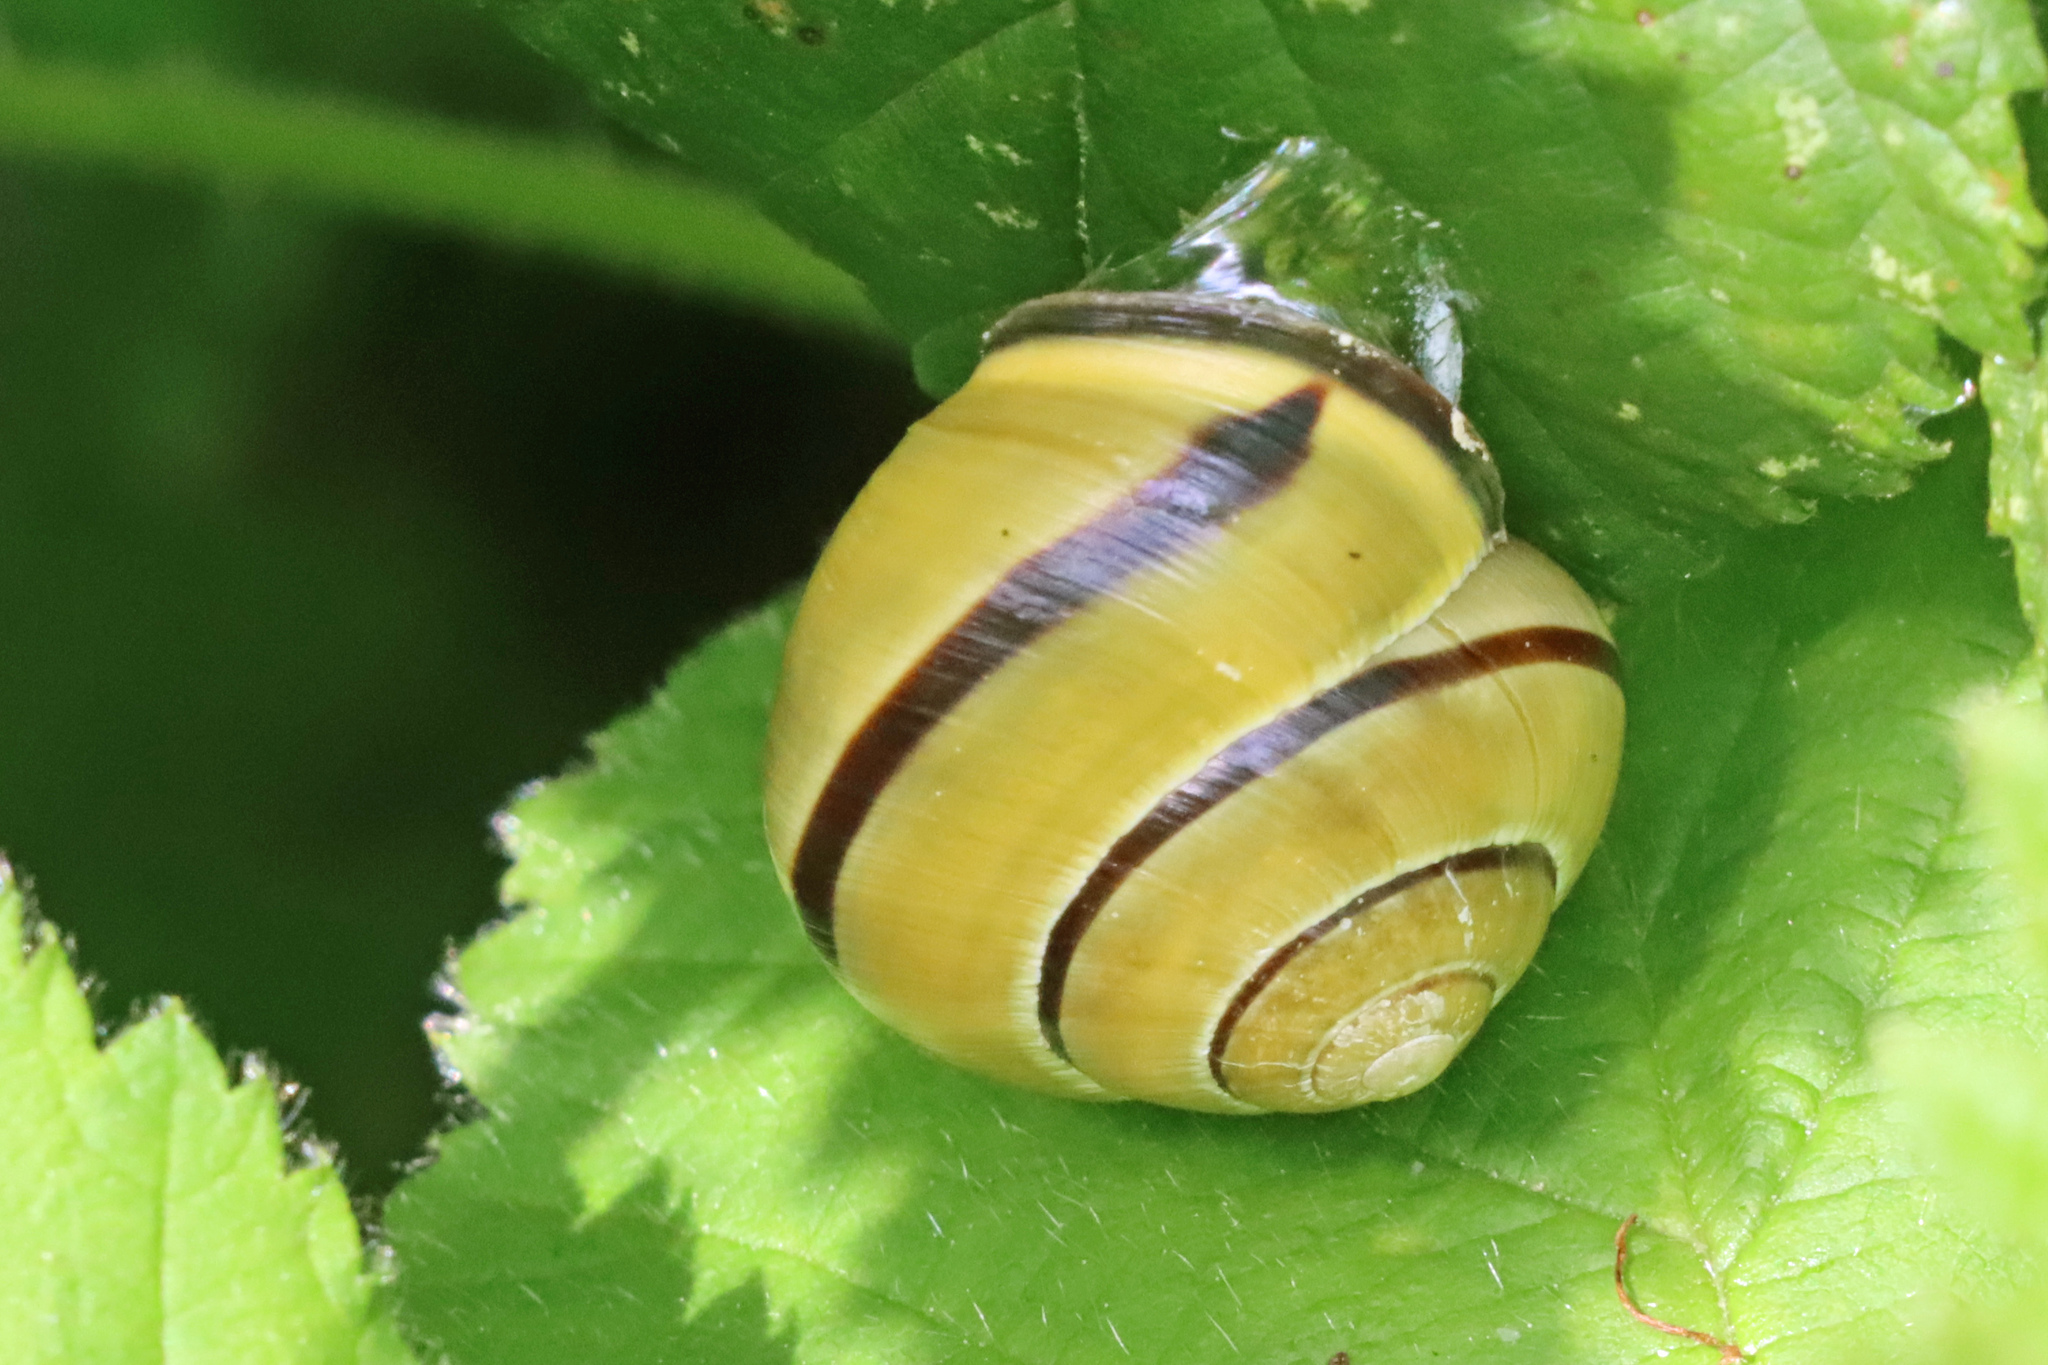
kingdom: Animalia
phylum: Mollusca
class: Gastropoda
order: Stylommatophora
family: Helicidae
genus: Cepaea
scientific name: Cepaea nemoralis
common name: Grovesnail
